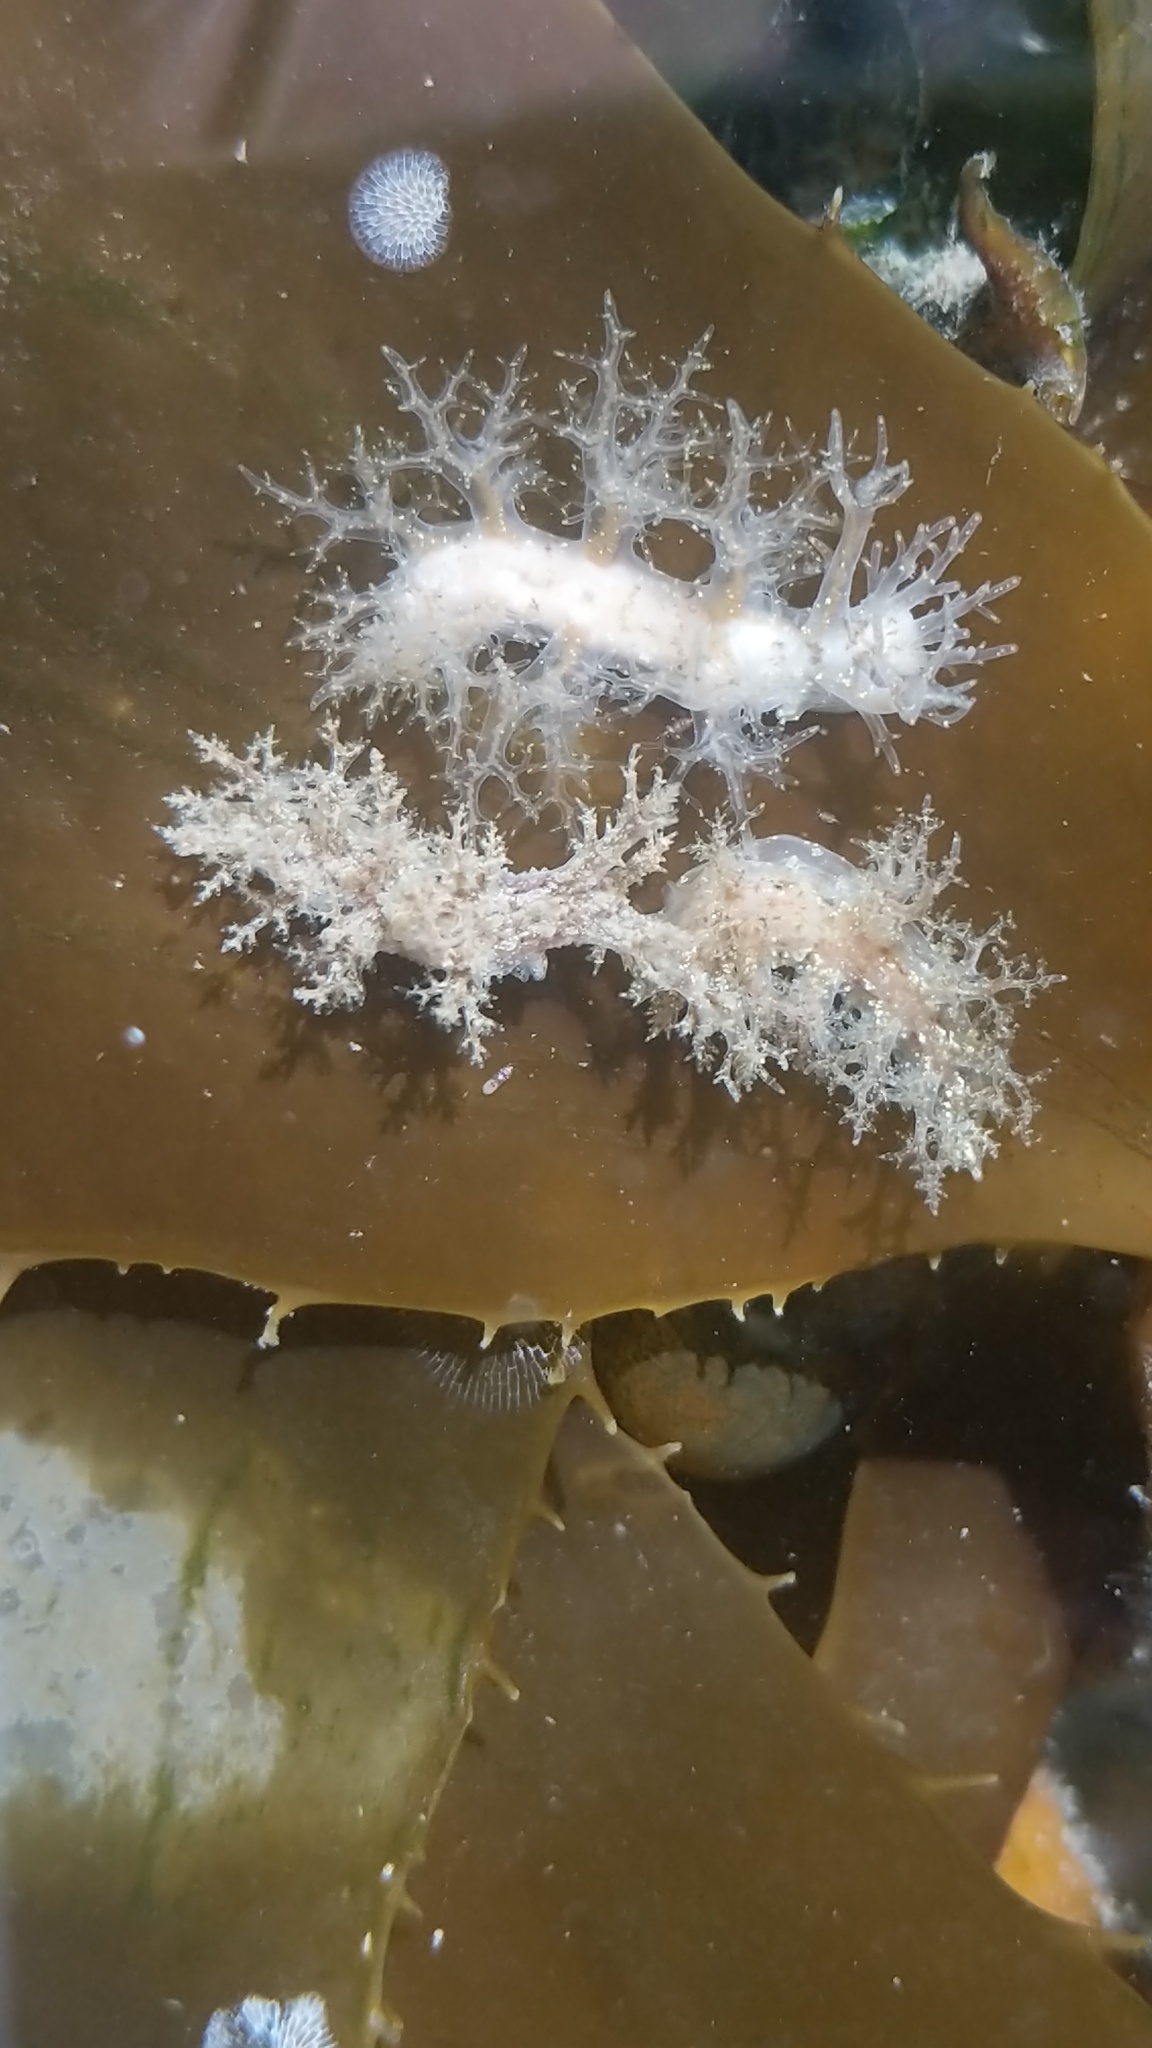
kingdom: Animalia
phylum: Mollusca
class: Gastropoda
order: Nudibranchia
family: Dendronotidae
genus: Dendronotus
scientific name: Dendronotus venustus
